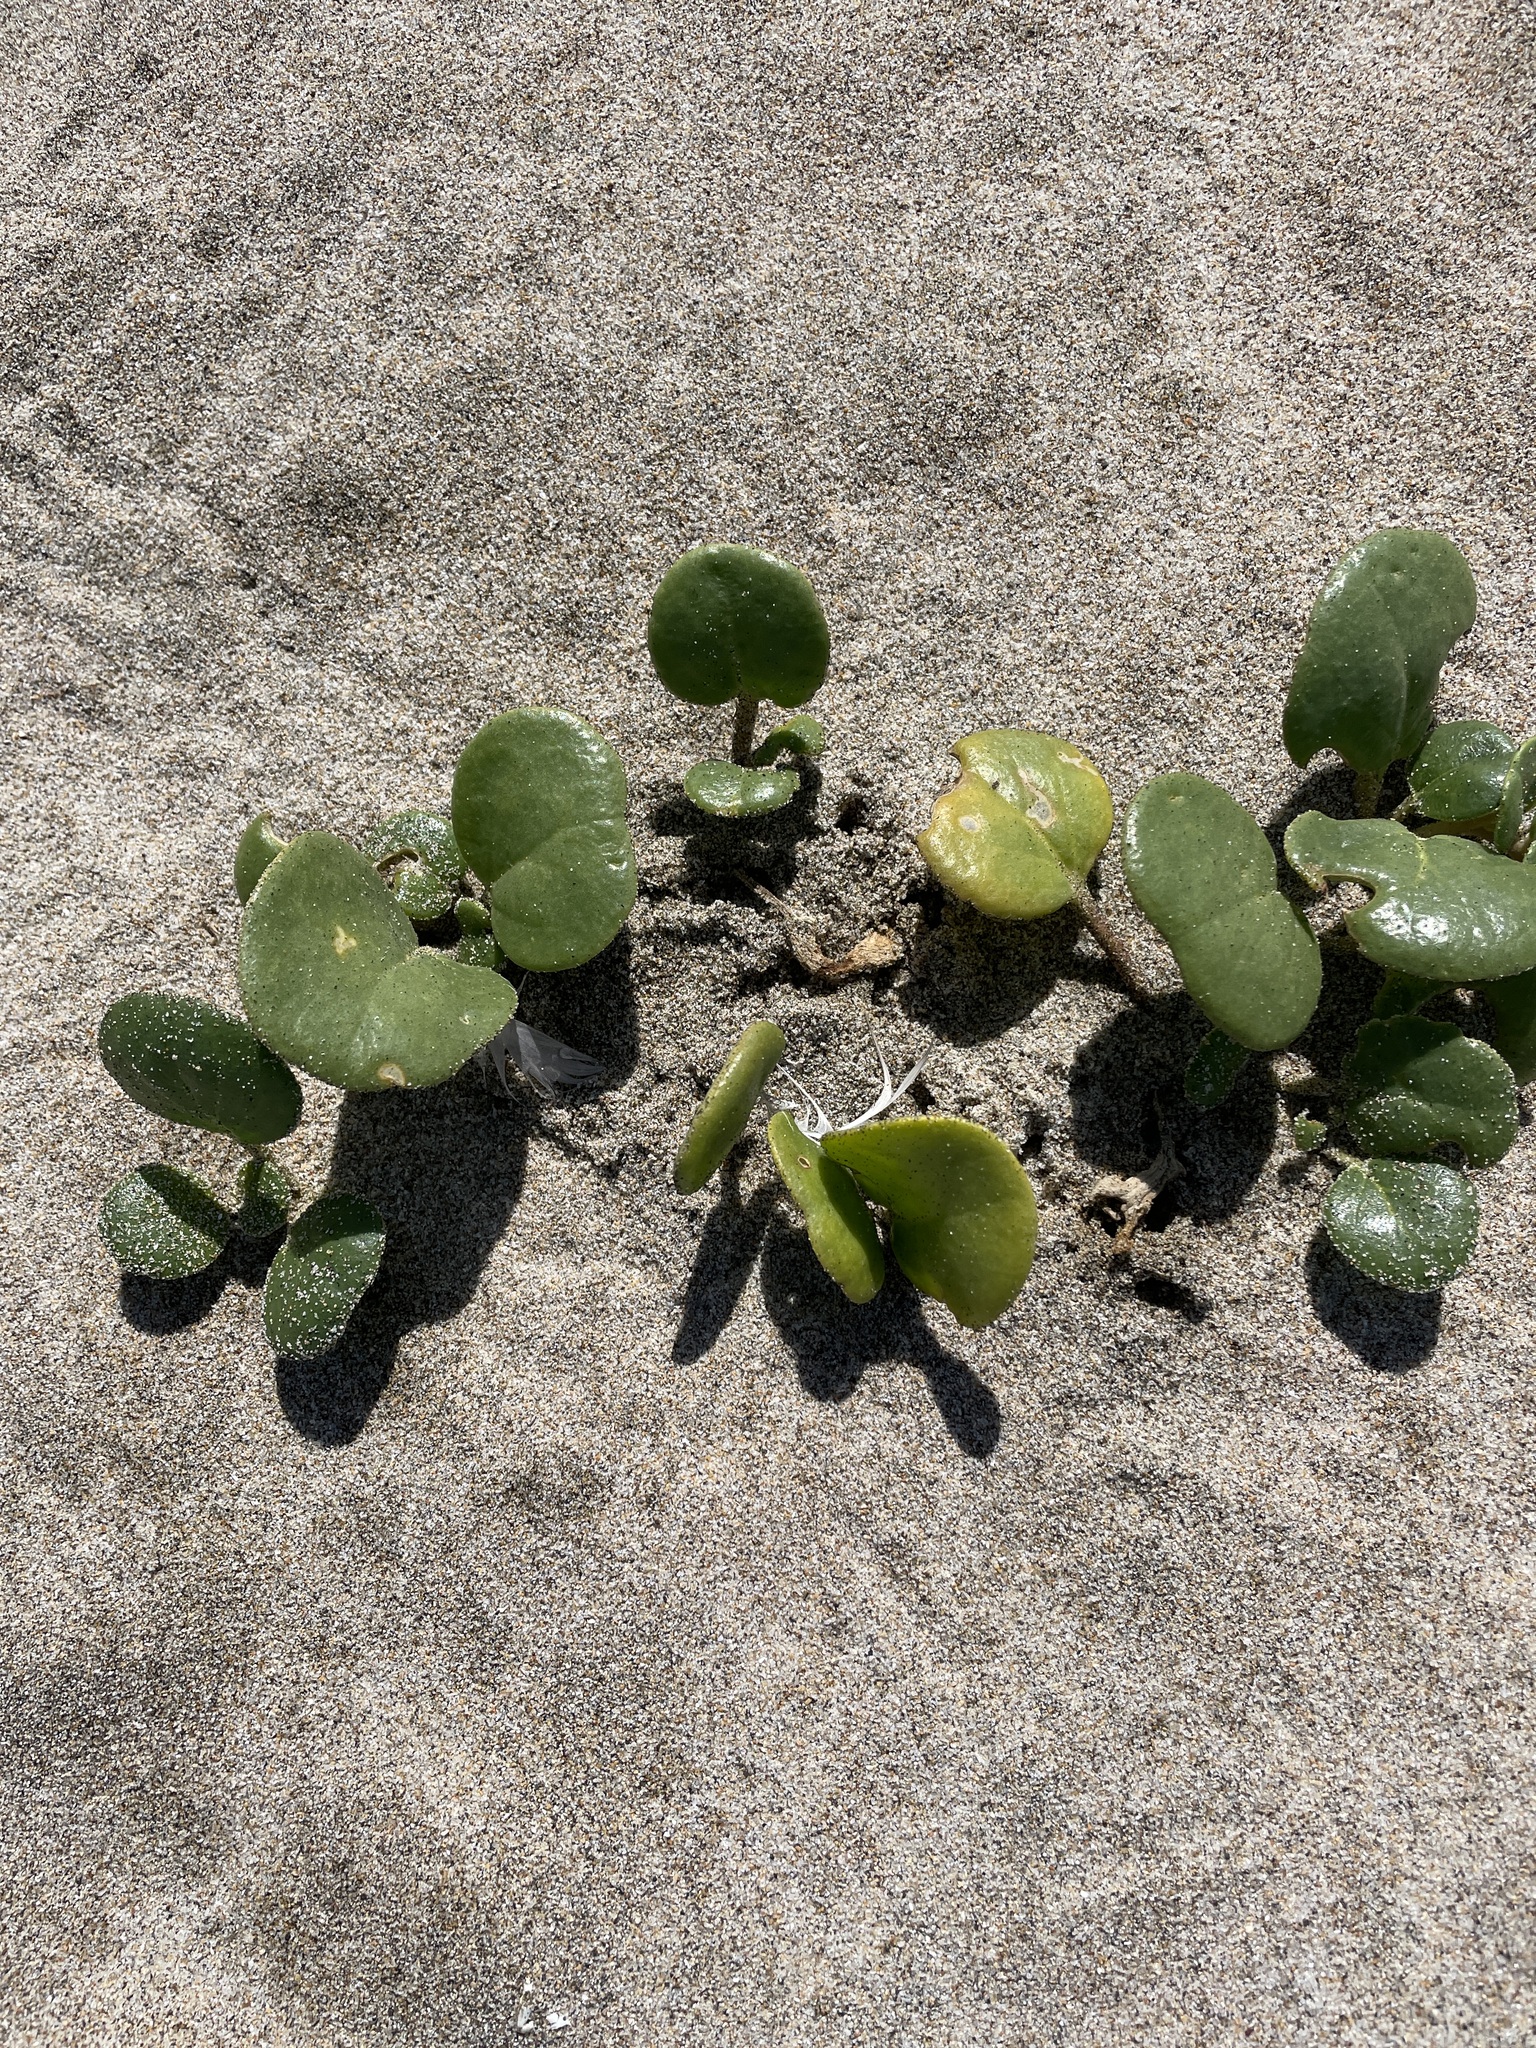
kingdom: Plantae
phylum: Tracheophyta
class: Magnoliopsida
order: Caryophyllales
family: Nyctaginaceae
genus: Abronia
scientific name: Abronia latifolia
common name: Yellow sand-verbena
